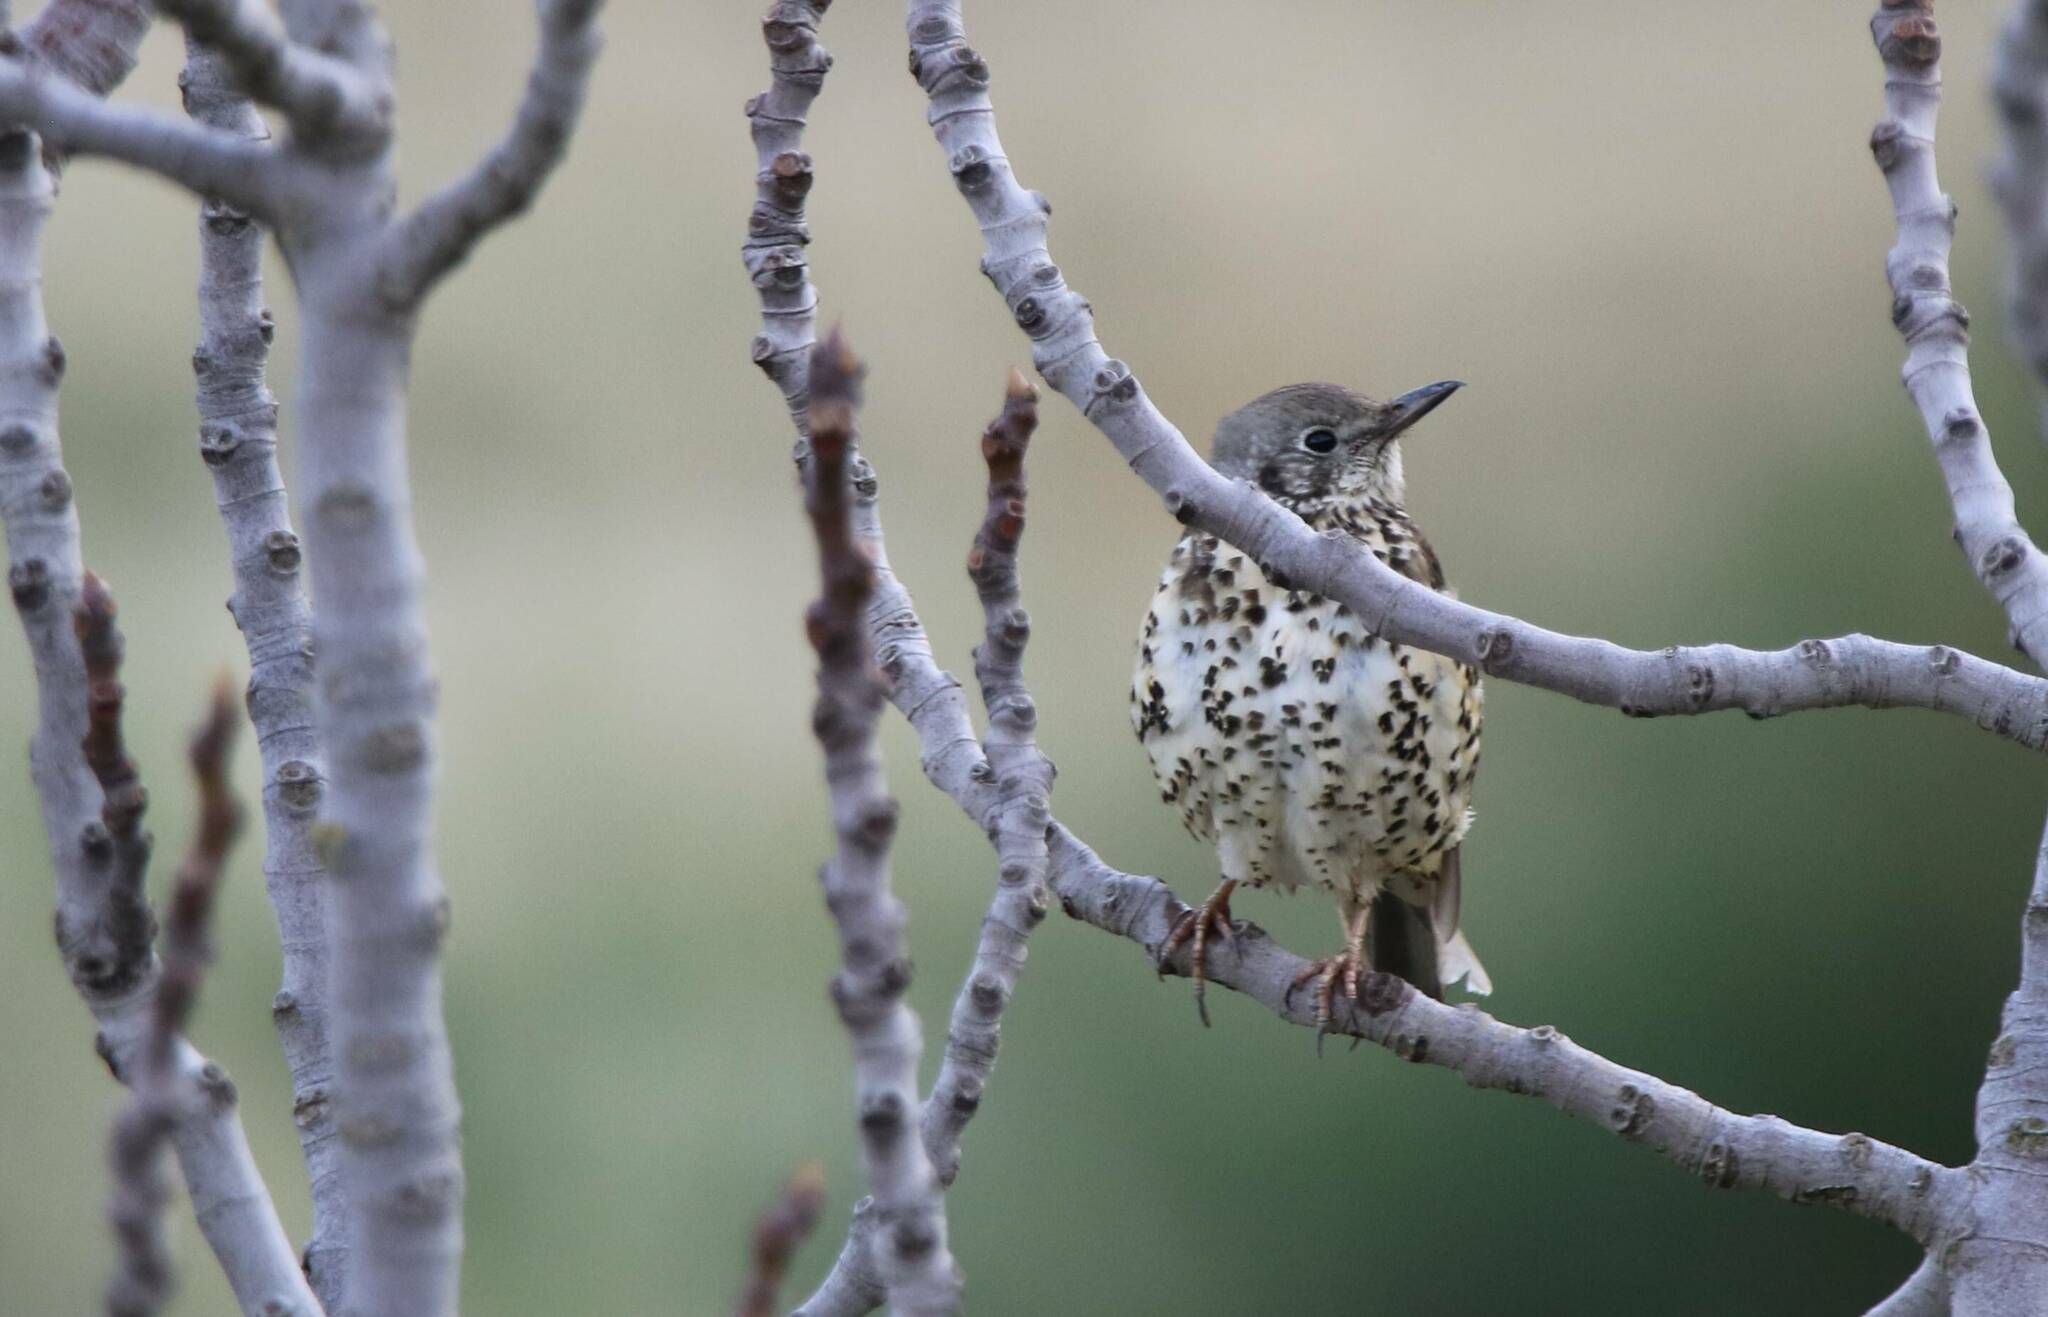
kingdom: Animalia
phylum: Chordata
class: Aves
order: Passeriformes
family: Turdidae
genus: Turdus
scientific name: Turdus viscivorus
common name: Mistle thrush
